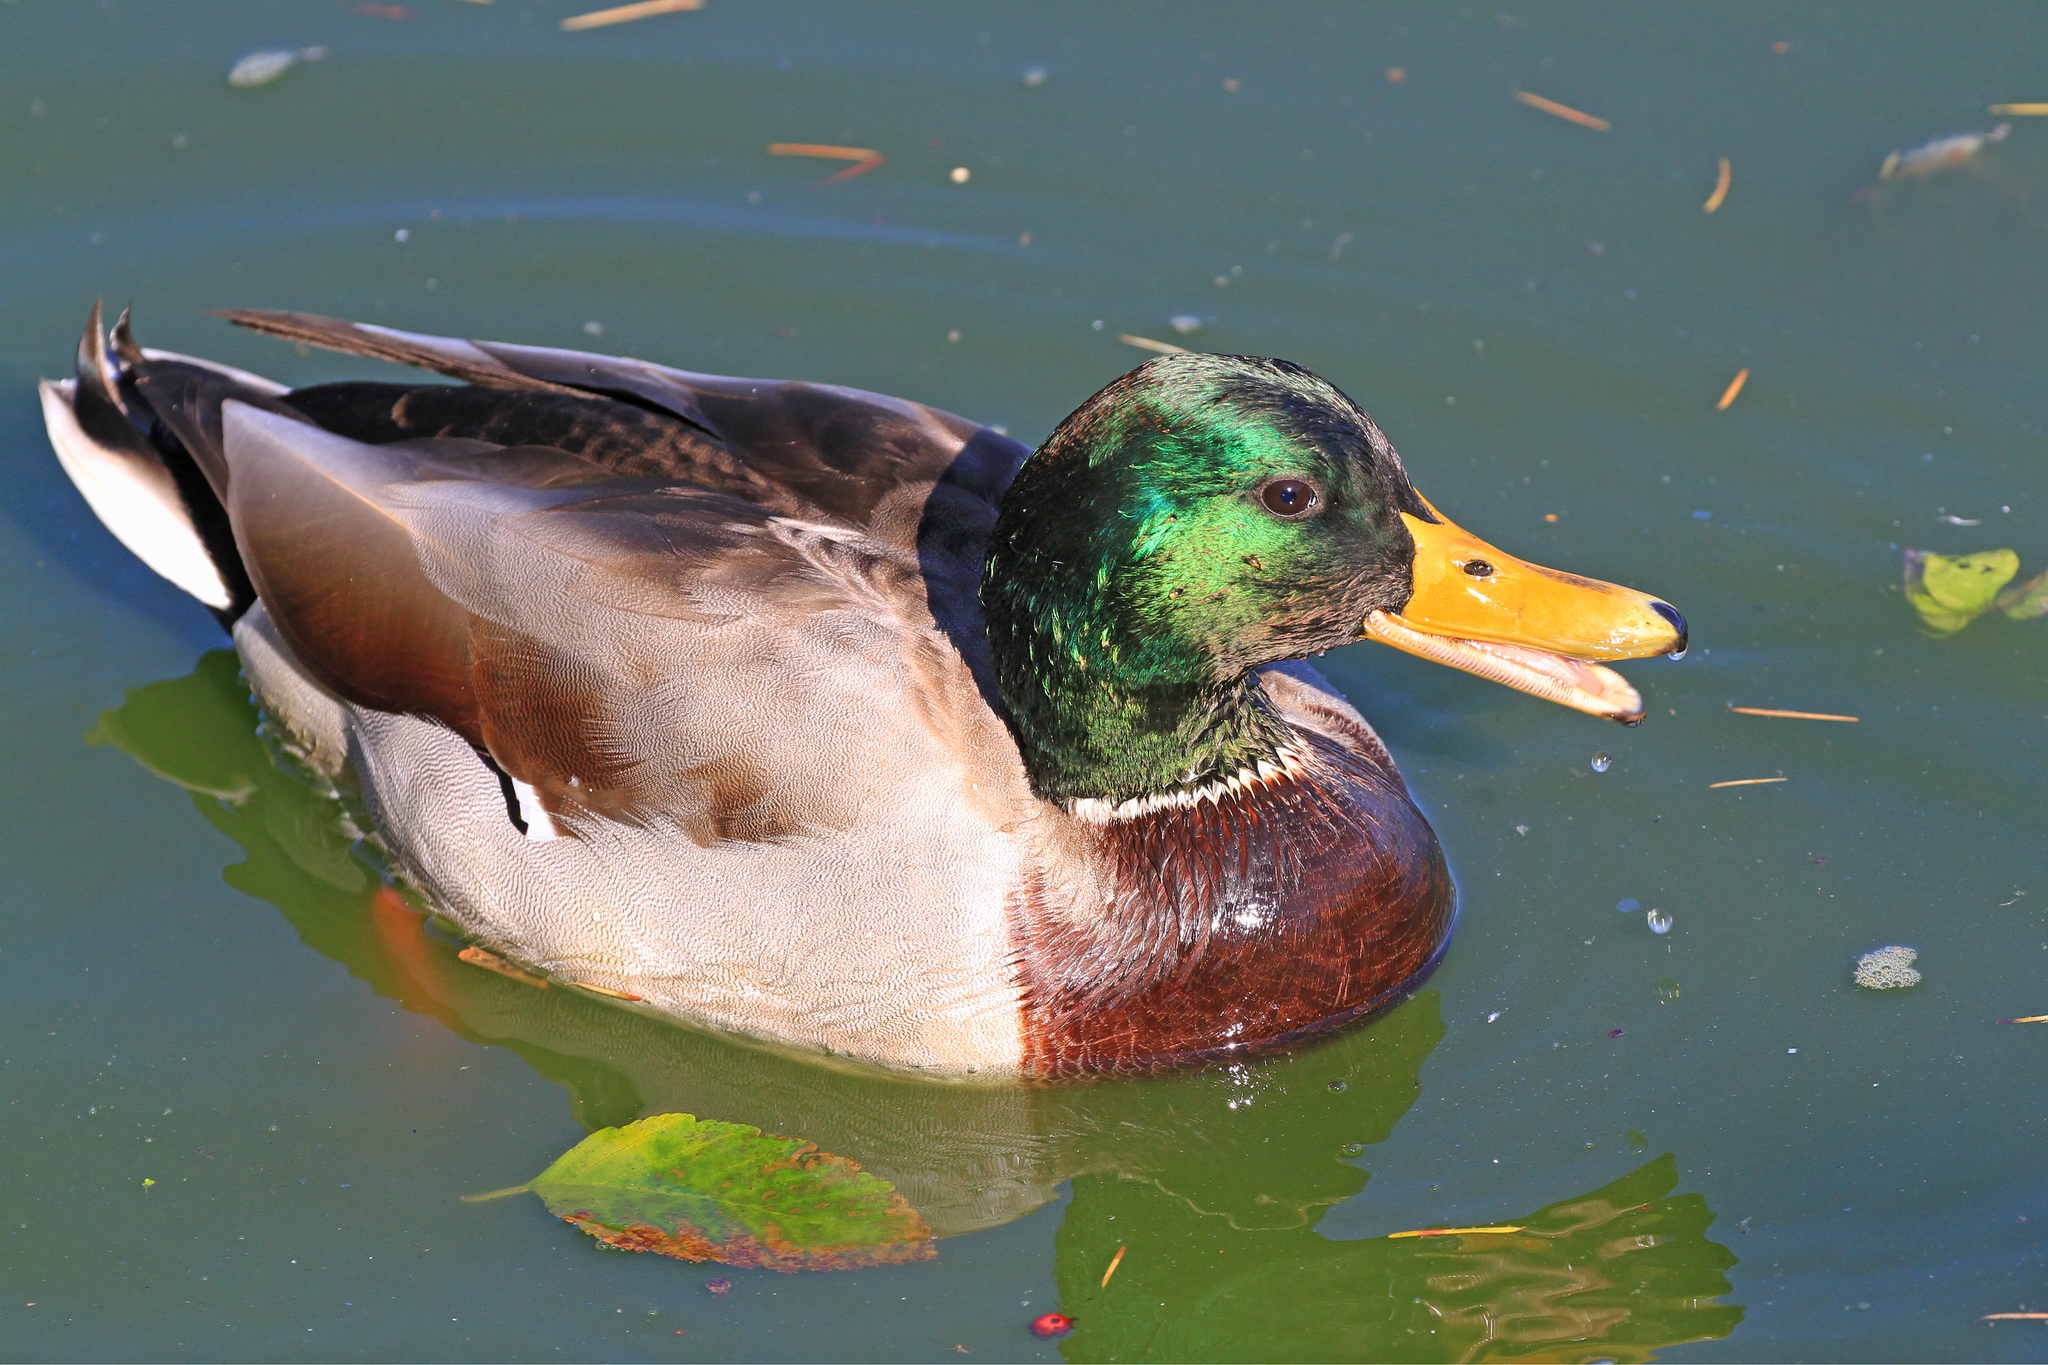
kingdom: Animalia
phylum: Chordata
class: Aves
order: Anseriformes
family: Anatidae
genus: Anas
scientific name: Anas platyrhynchos
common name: Mallard
